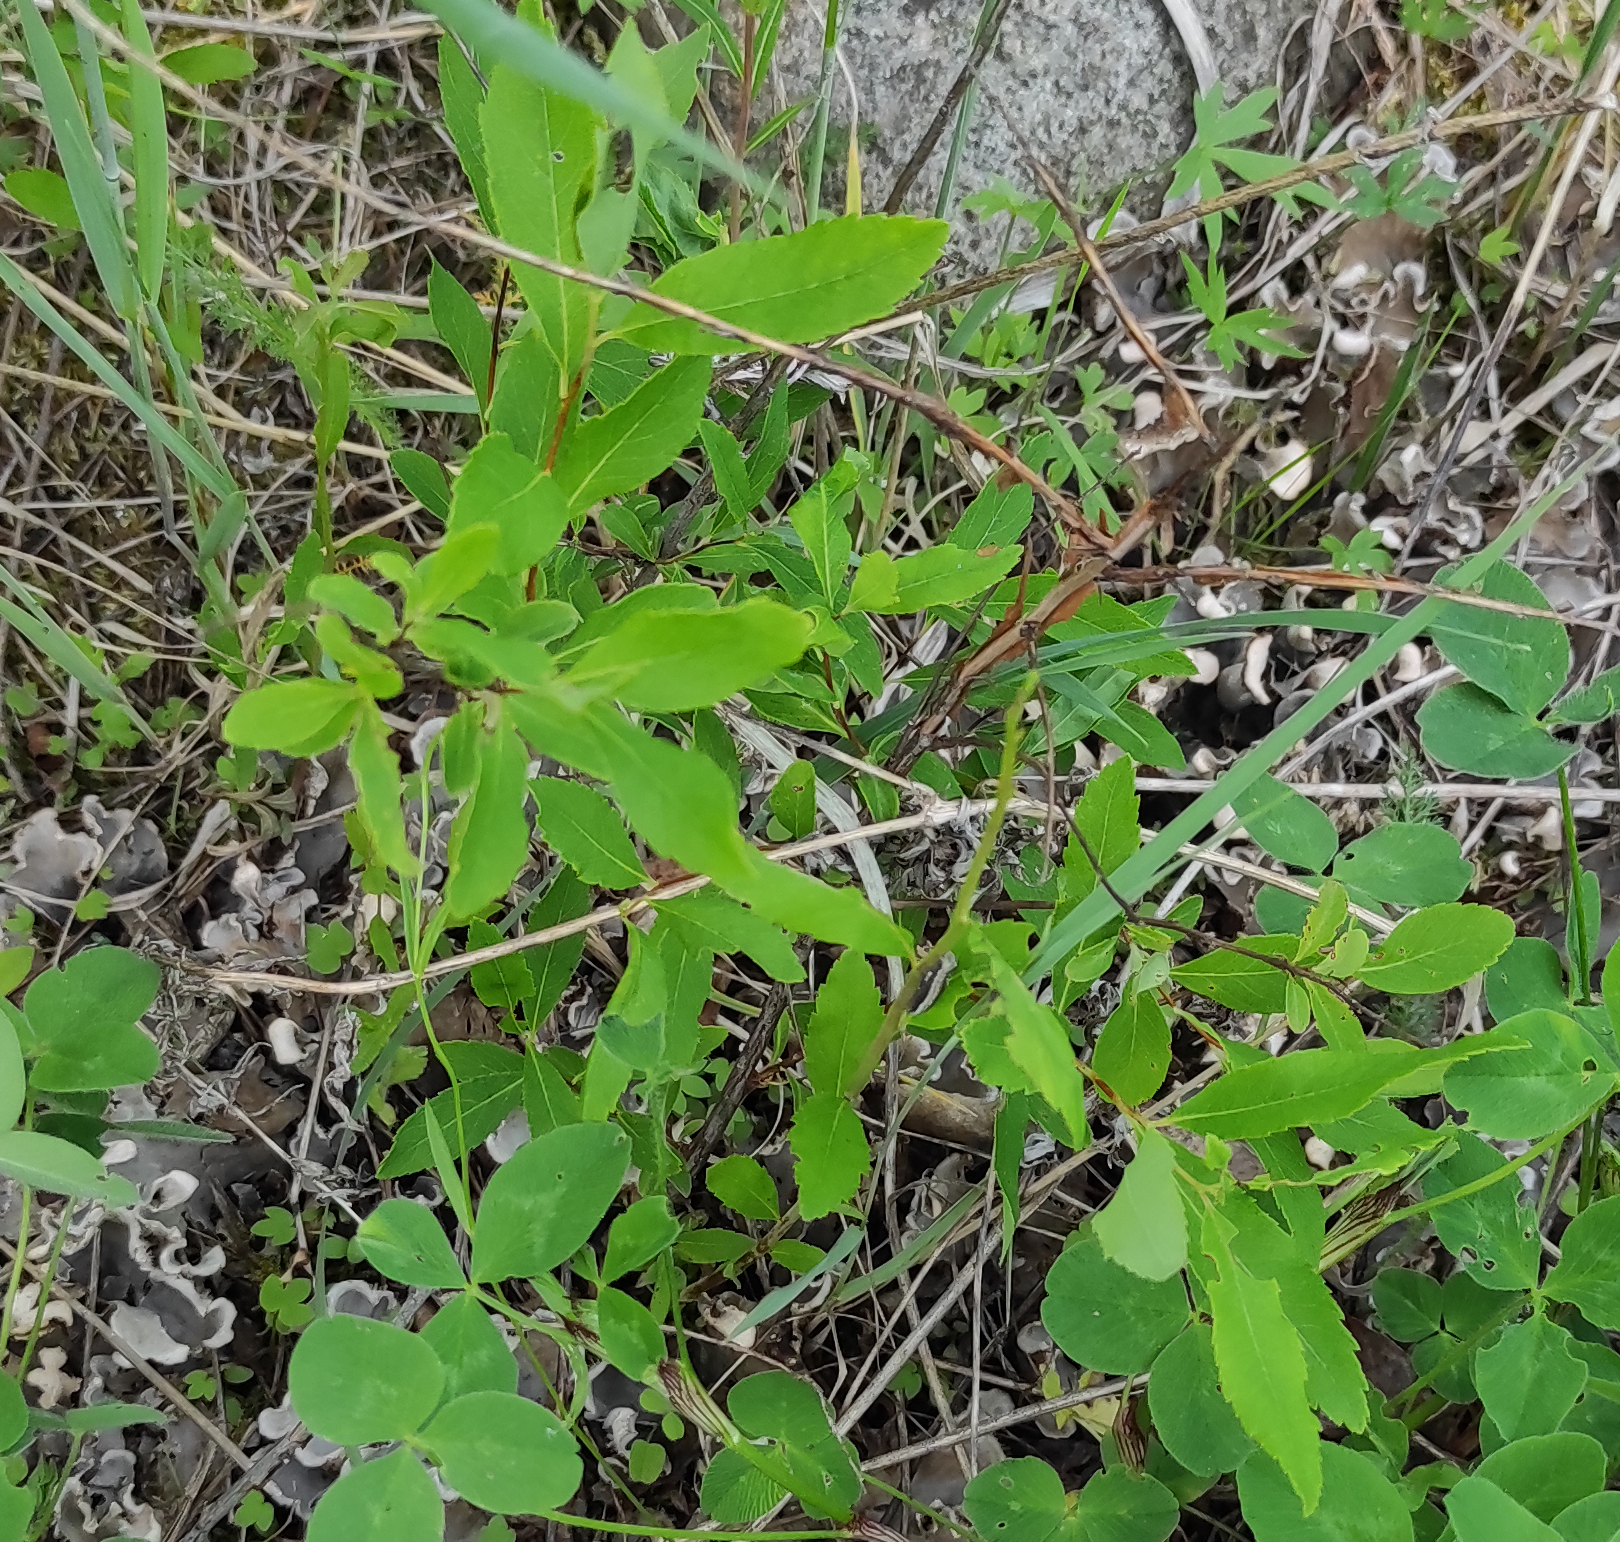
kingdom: Plantae
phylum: Tracheophyta
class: Magnoliopsida
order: Rosales
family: Rosaceae
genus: Spiraea
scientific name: Spiraea salicifolia
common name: Bridewort
